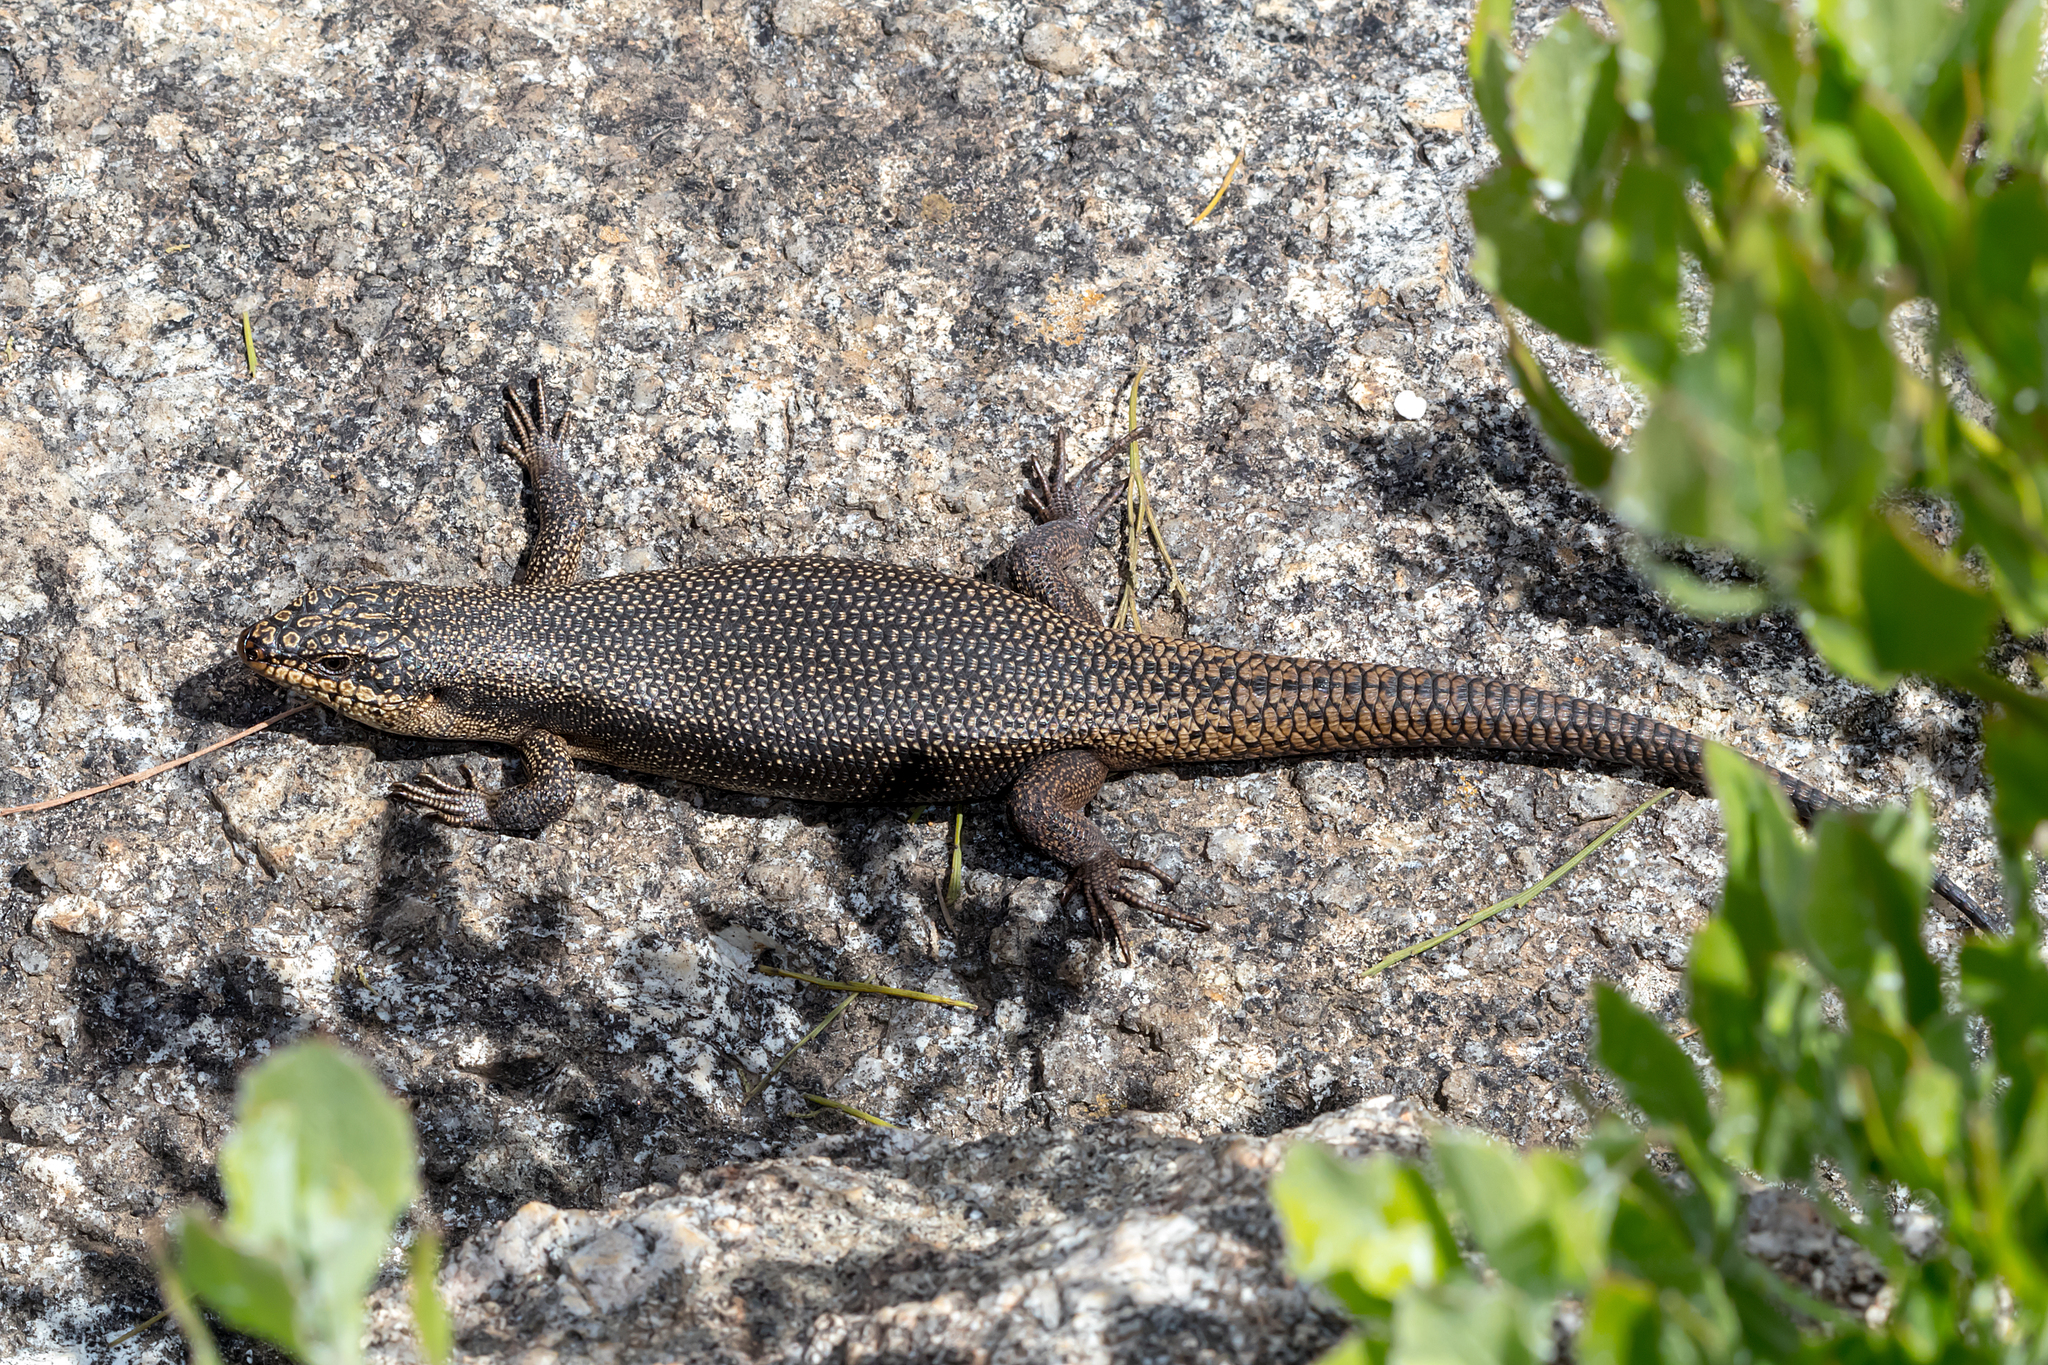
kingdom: Animalia
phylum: Chordata
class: Squamata
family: Scincidae
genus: Egernia
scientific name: Egernia saxatilis
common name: Black crevice-skink
